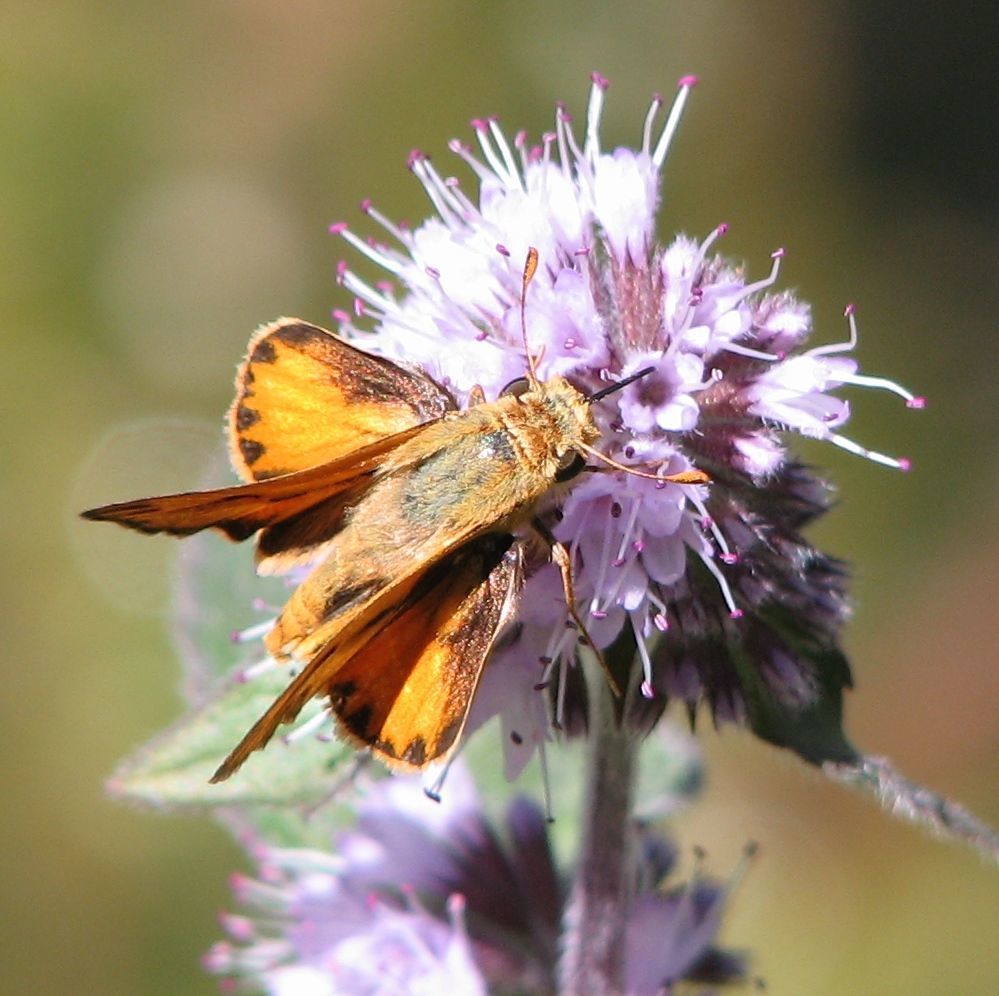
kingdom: Animalia
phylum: Arthropoda
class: Insecta
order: Lepidoptera
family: Hesperiidae
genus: Hylephila
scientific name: Hylephila phyleus
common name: Fiery skipper
